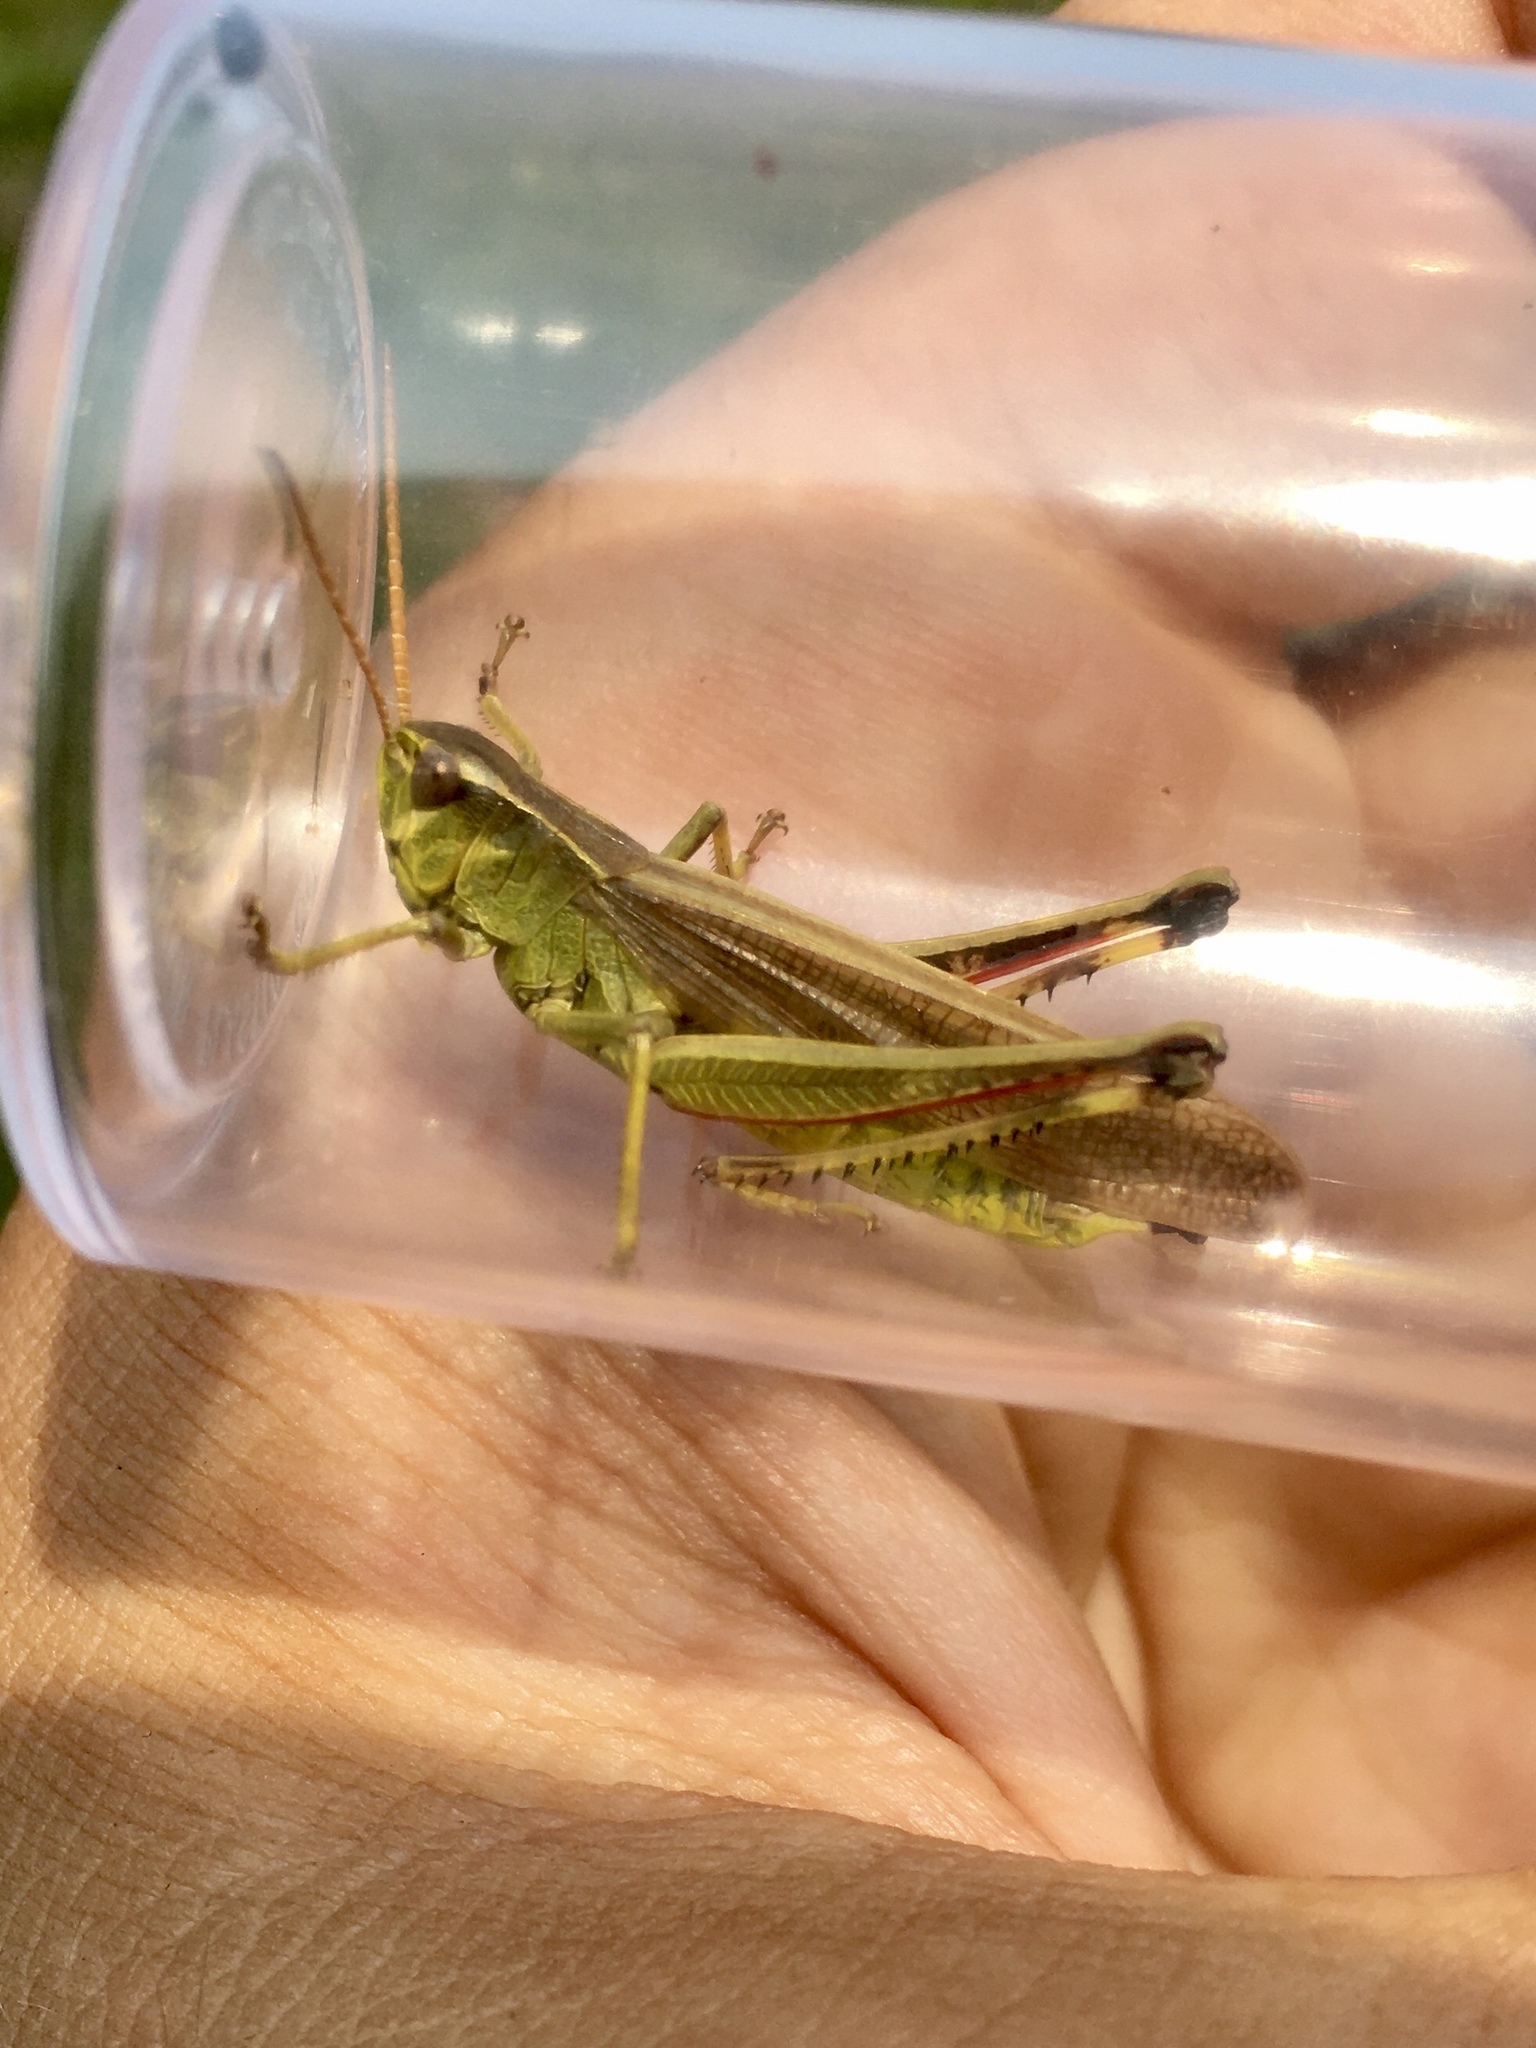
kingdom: Animalia
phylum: Arthropoda
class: Insecta
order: Orthoptera
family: Acrididae
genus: Stethophyma
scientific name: Stethophyma gracile
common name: Graceful sedge grasshopper
